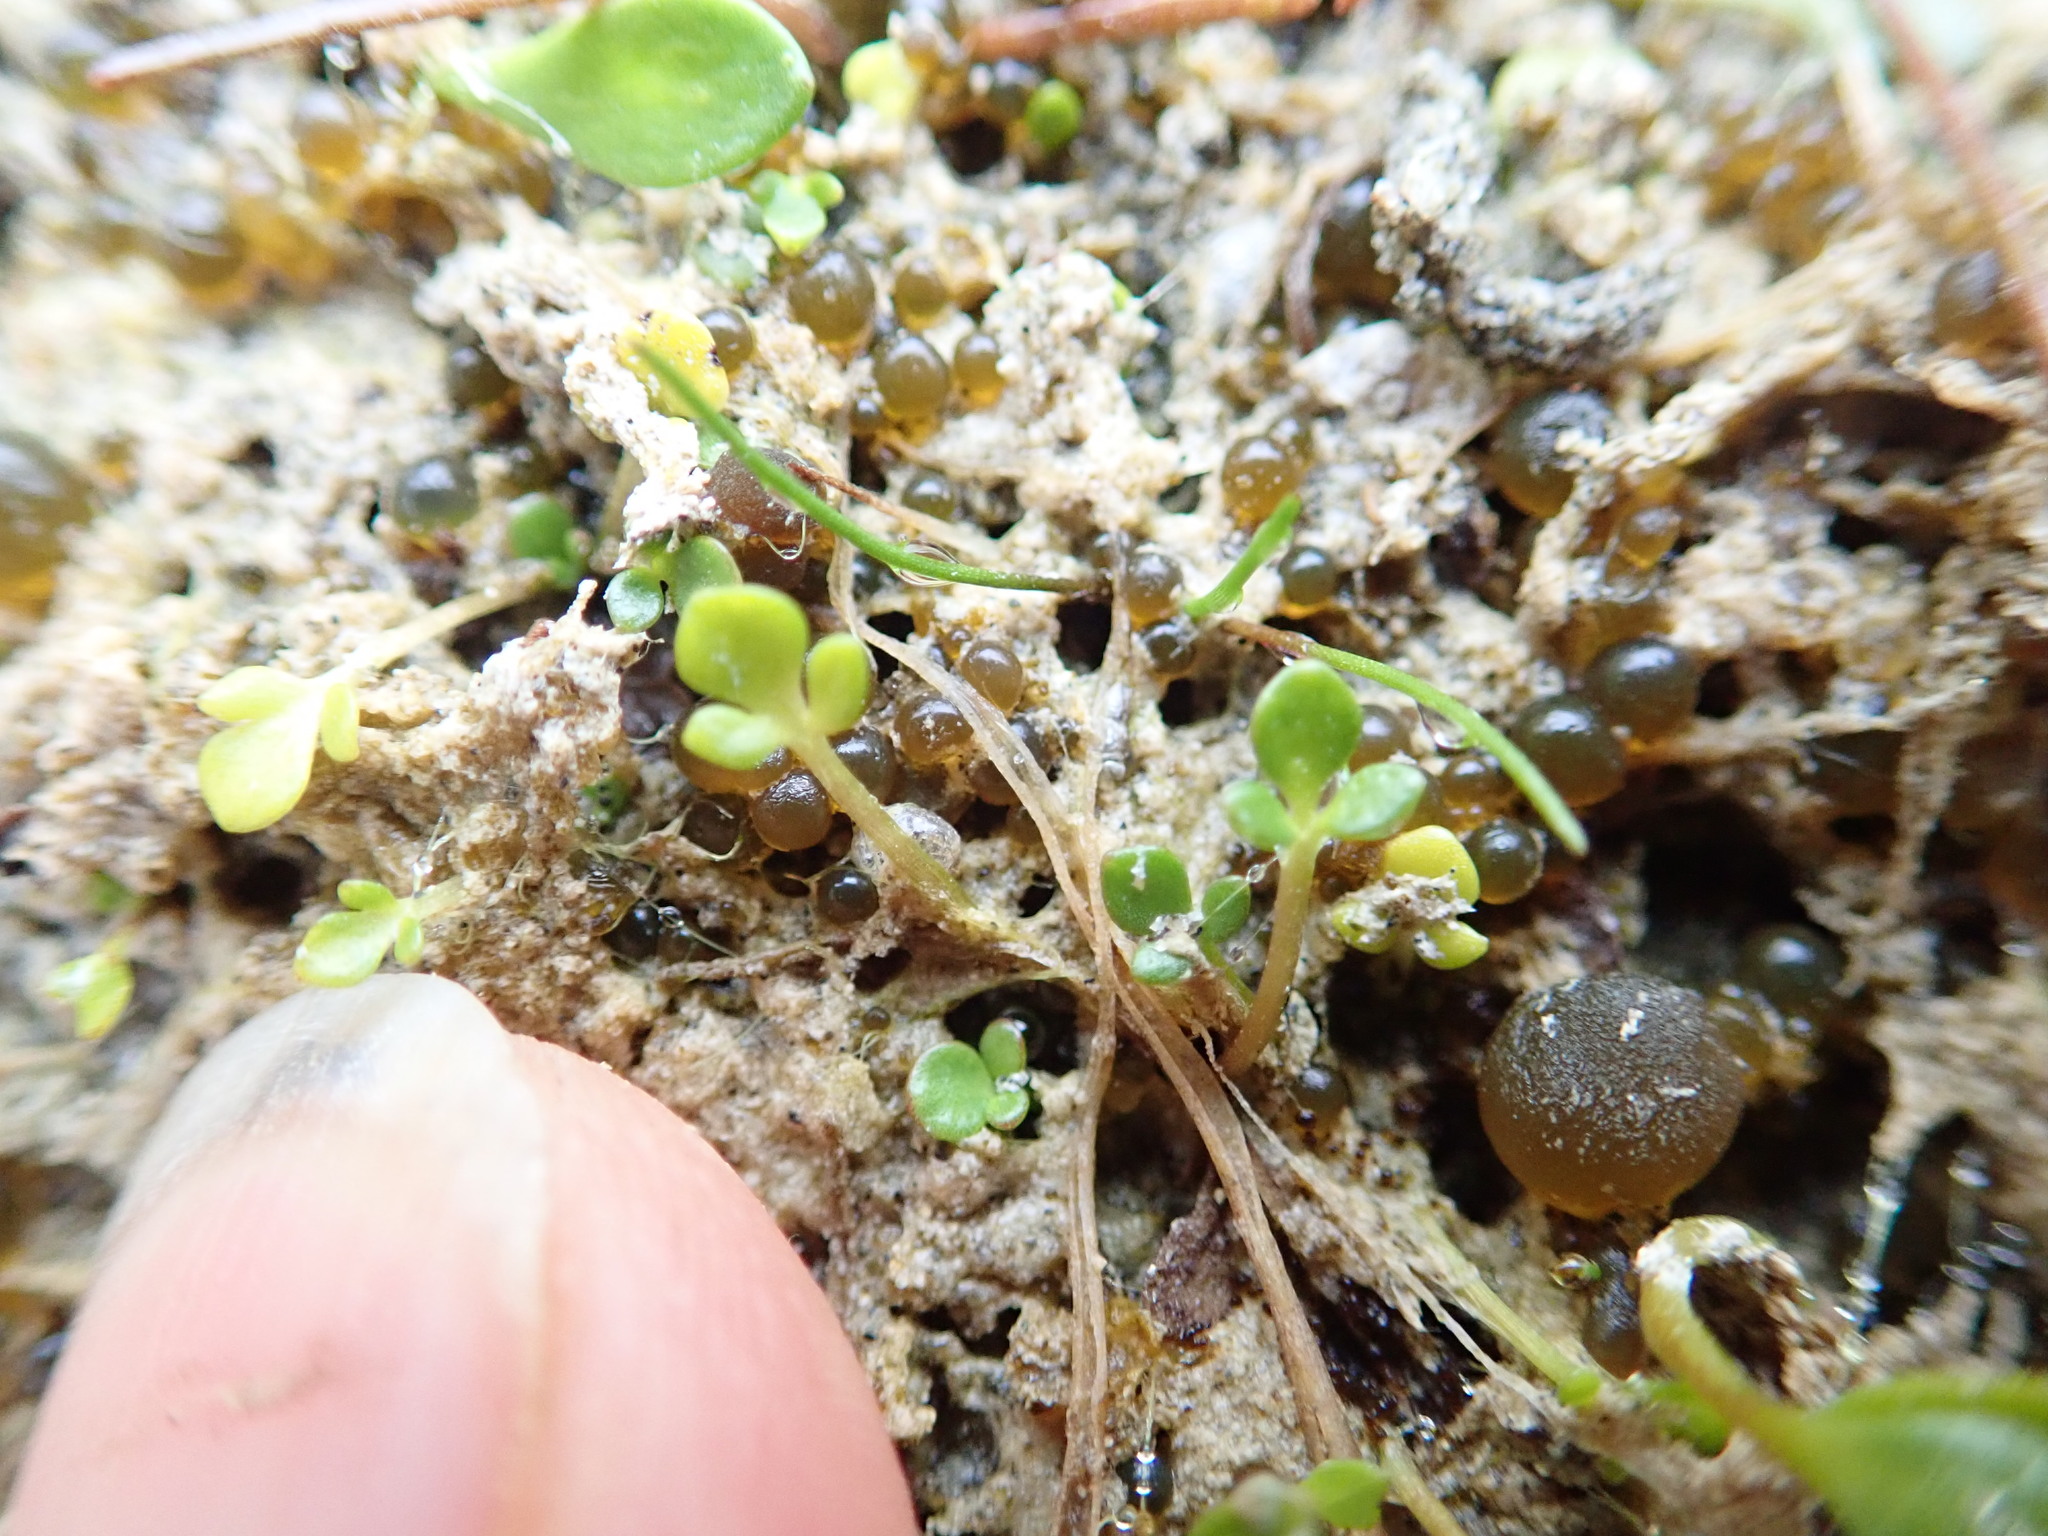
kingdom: Plantae
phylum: Tracheophyta
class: Magnoliopsida
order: Ranunculales
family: Ranunculaceae
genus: Ranunculus
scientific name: Ranunculus acaulis
